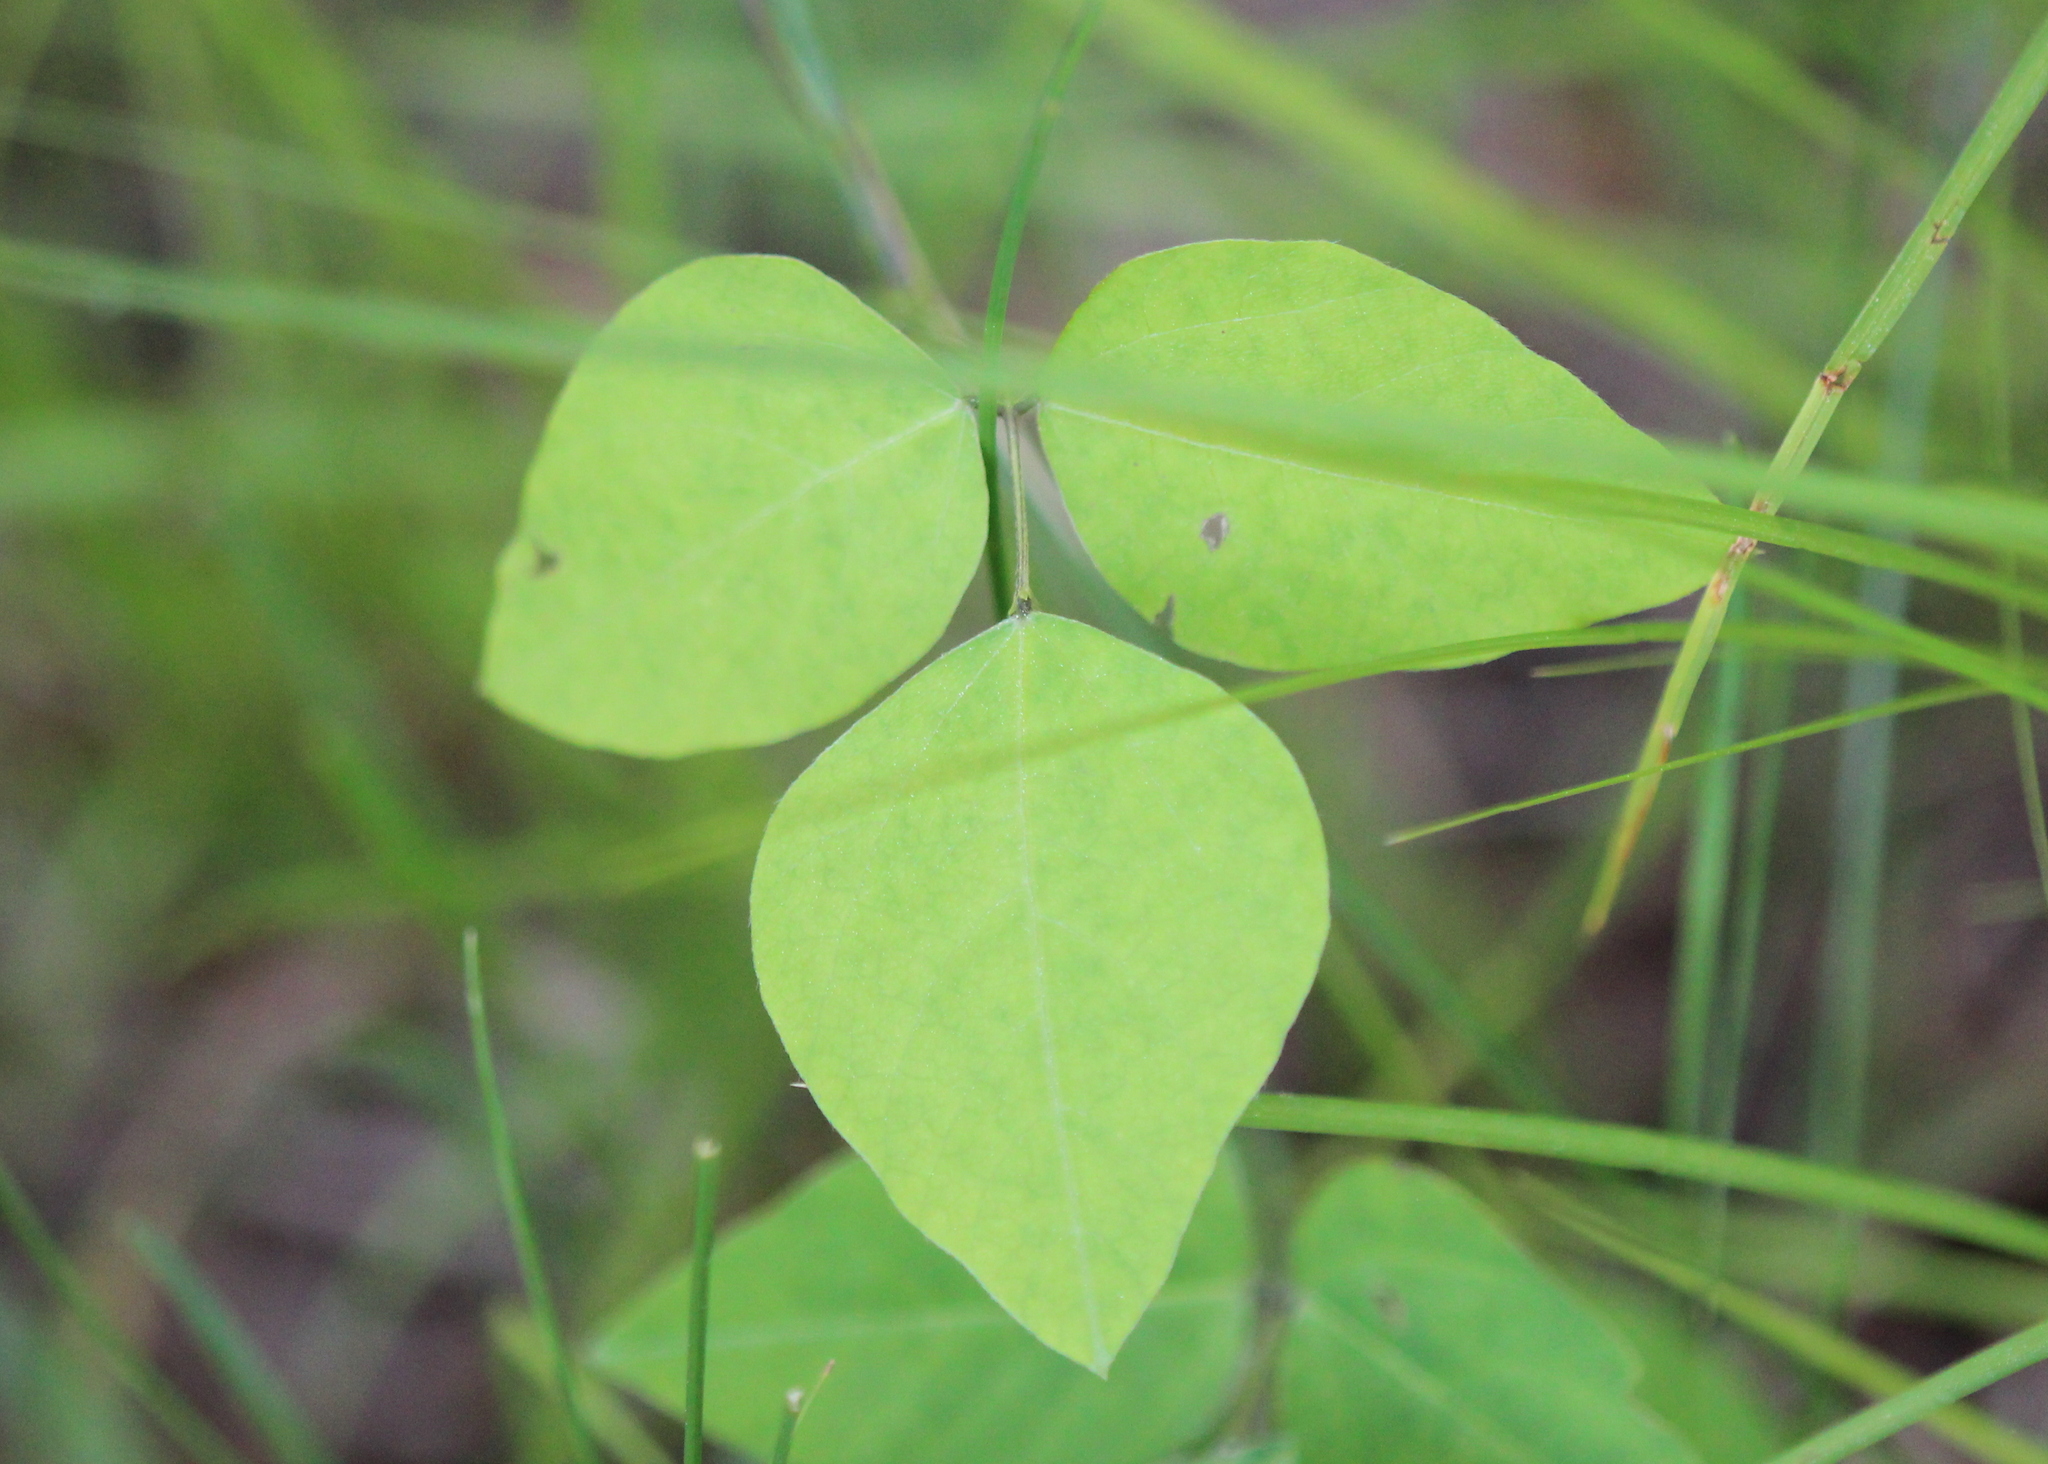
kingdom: Plantae
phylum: Tracheophyta
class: Magnoliopsida
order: Fabales
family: Fabaceae
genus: Amphicarpaea
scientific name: Amphicarpaea bracteata
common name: American hog peanut
